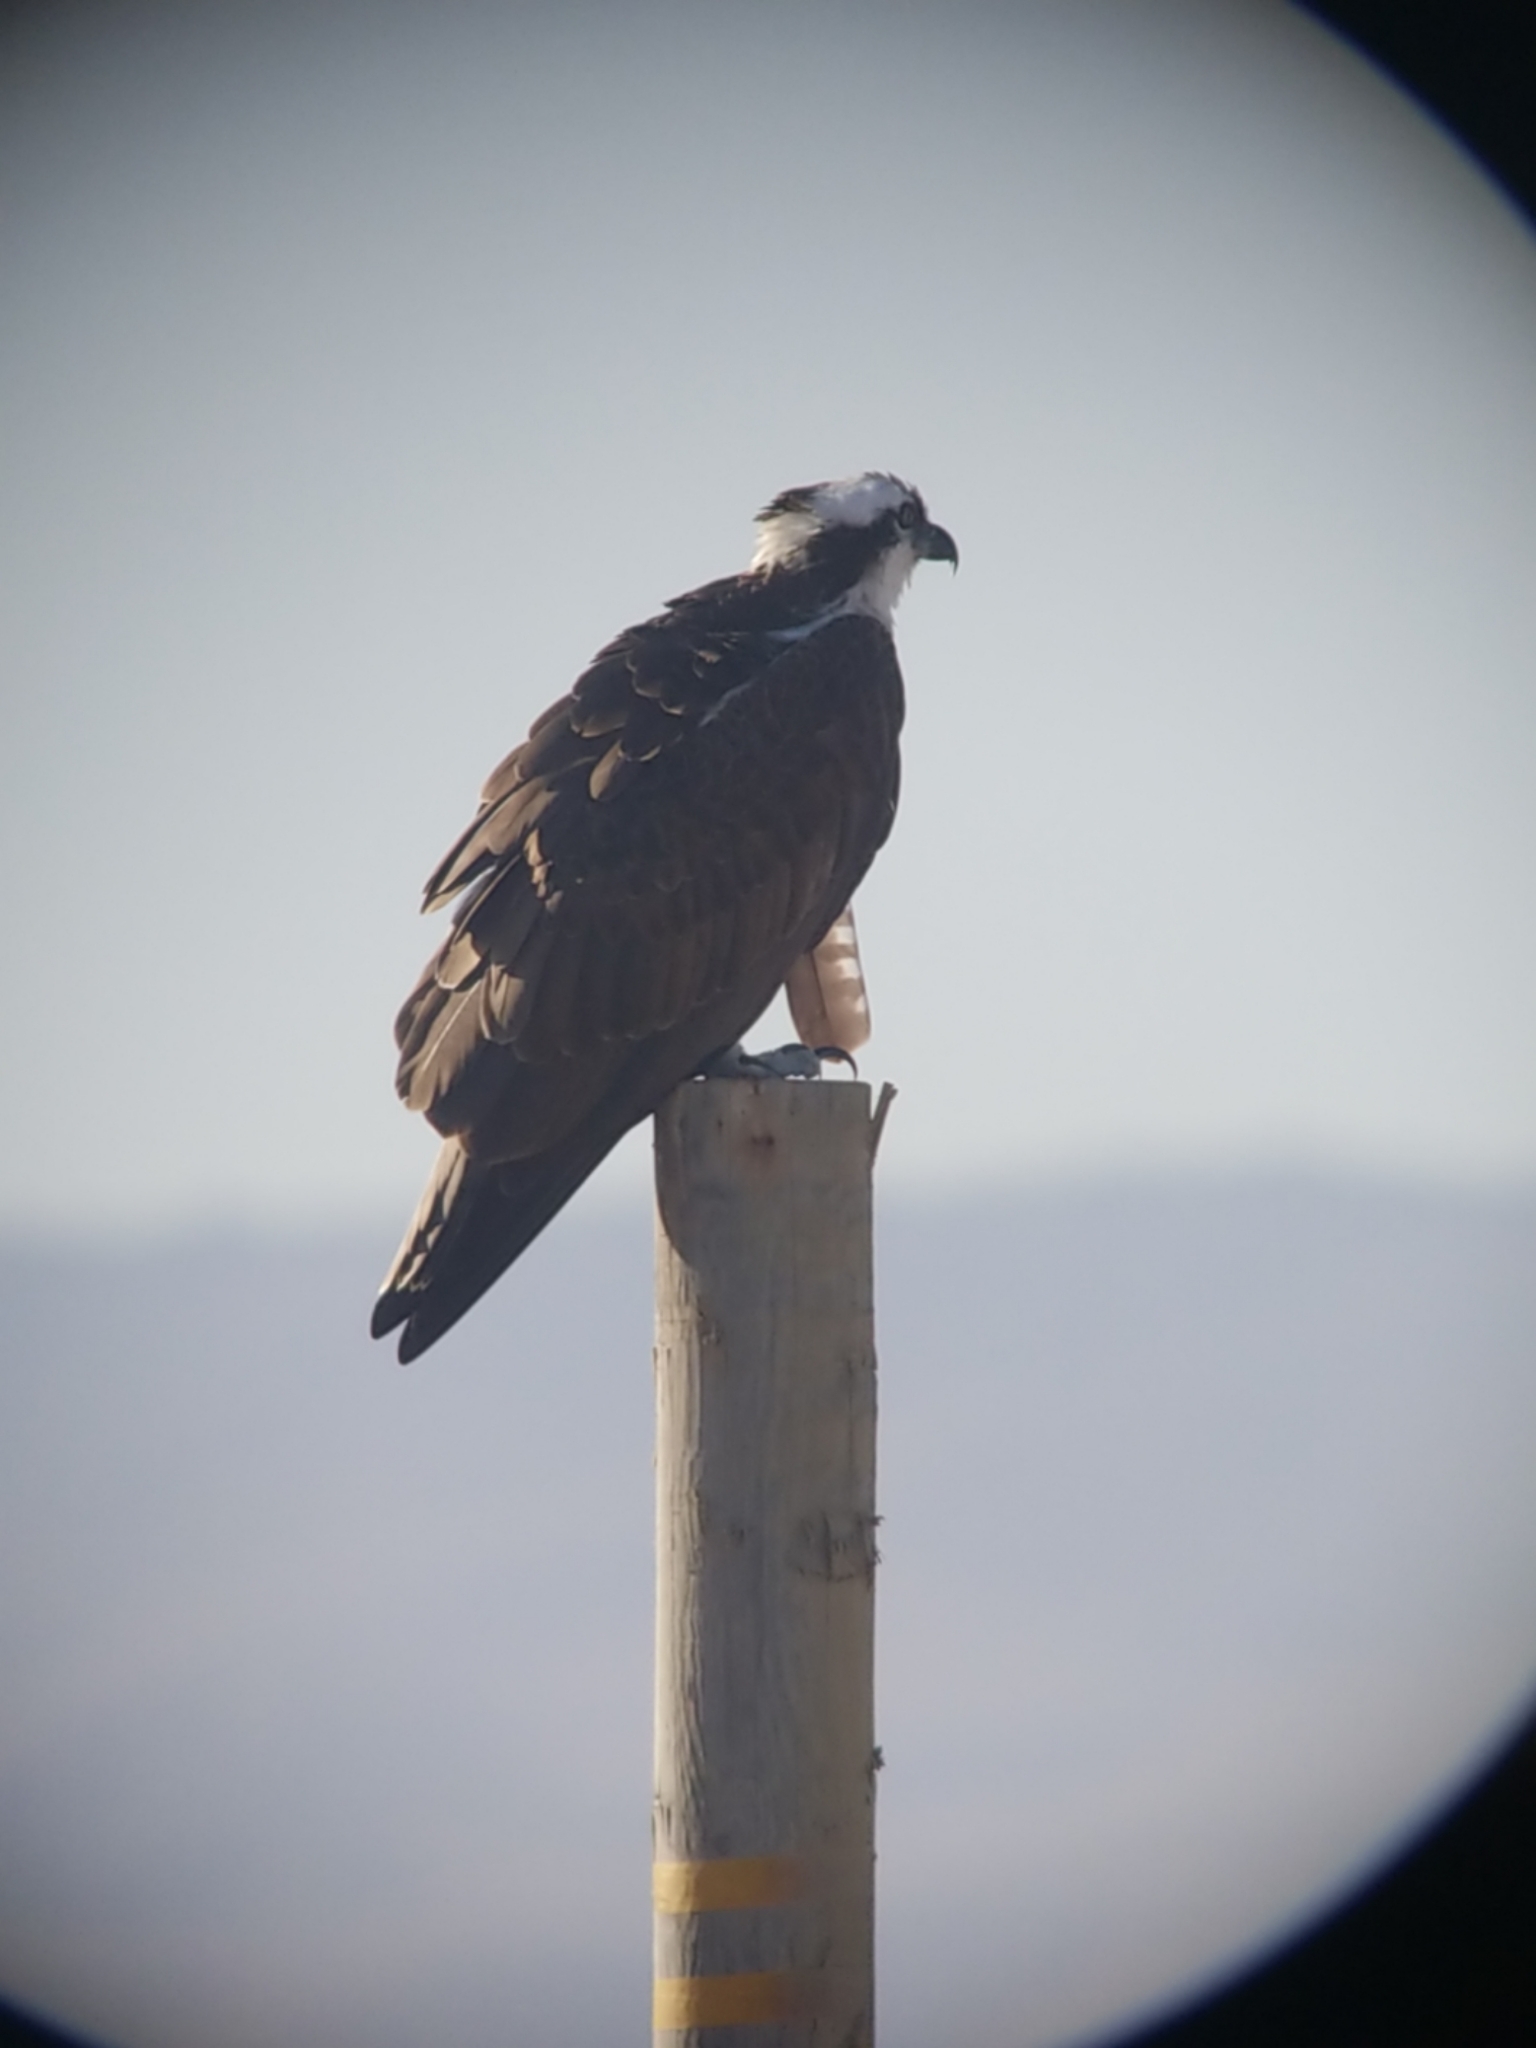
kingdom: Animalia
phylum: Chordata
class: Aves
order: Accipitriformes
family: Pandionidae
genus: Pandion
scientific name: Pandion haliaetus
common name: Osprey
